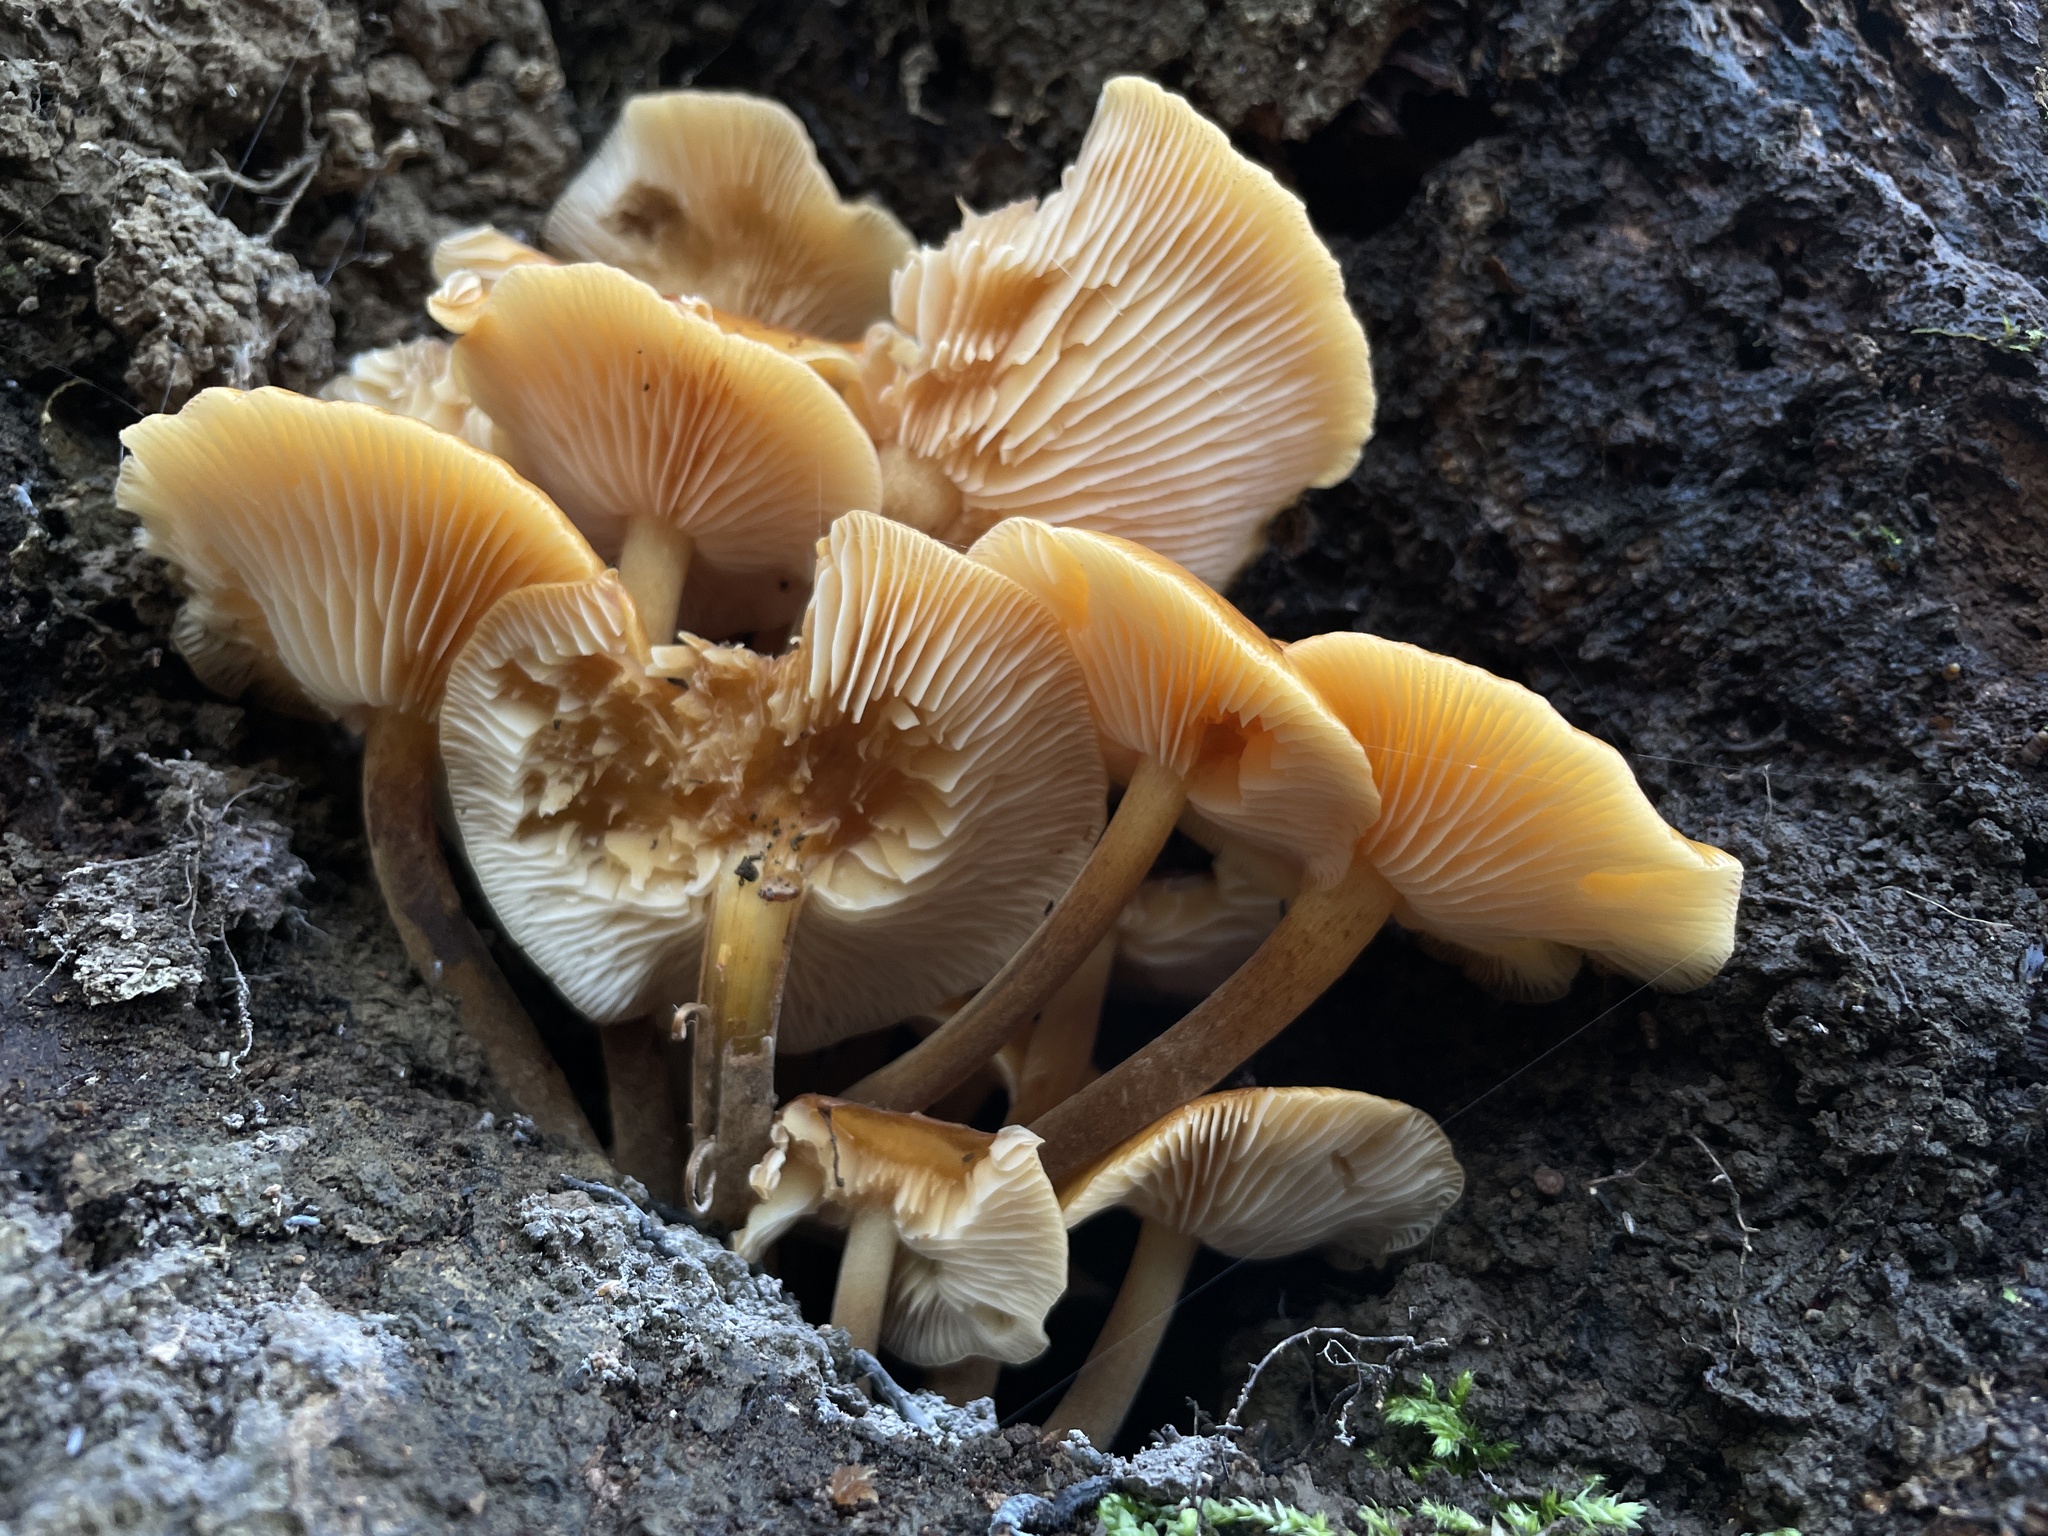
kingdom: Fungi
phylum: Basidiomycota
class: Agaricomycetes
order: Agaricales
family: Physalacriaceae
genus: Flammulina
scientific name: Flammulina
